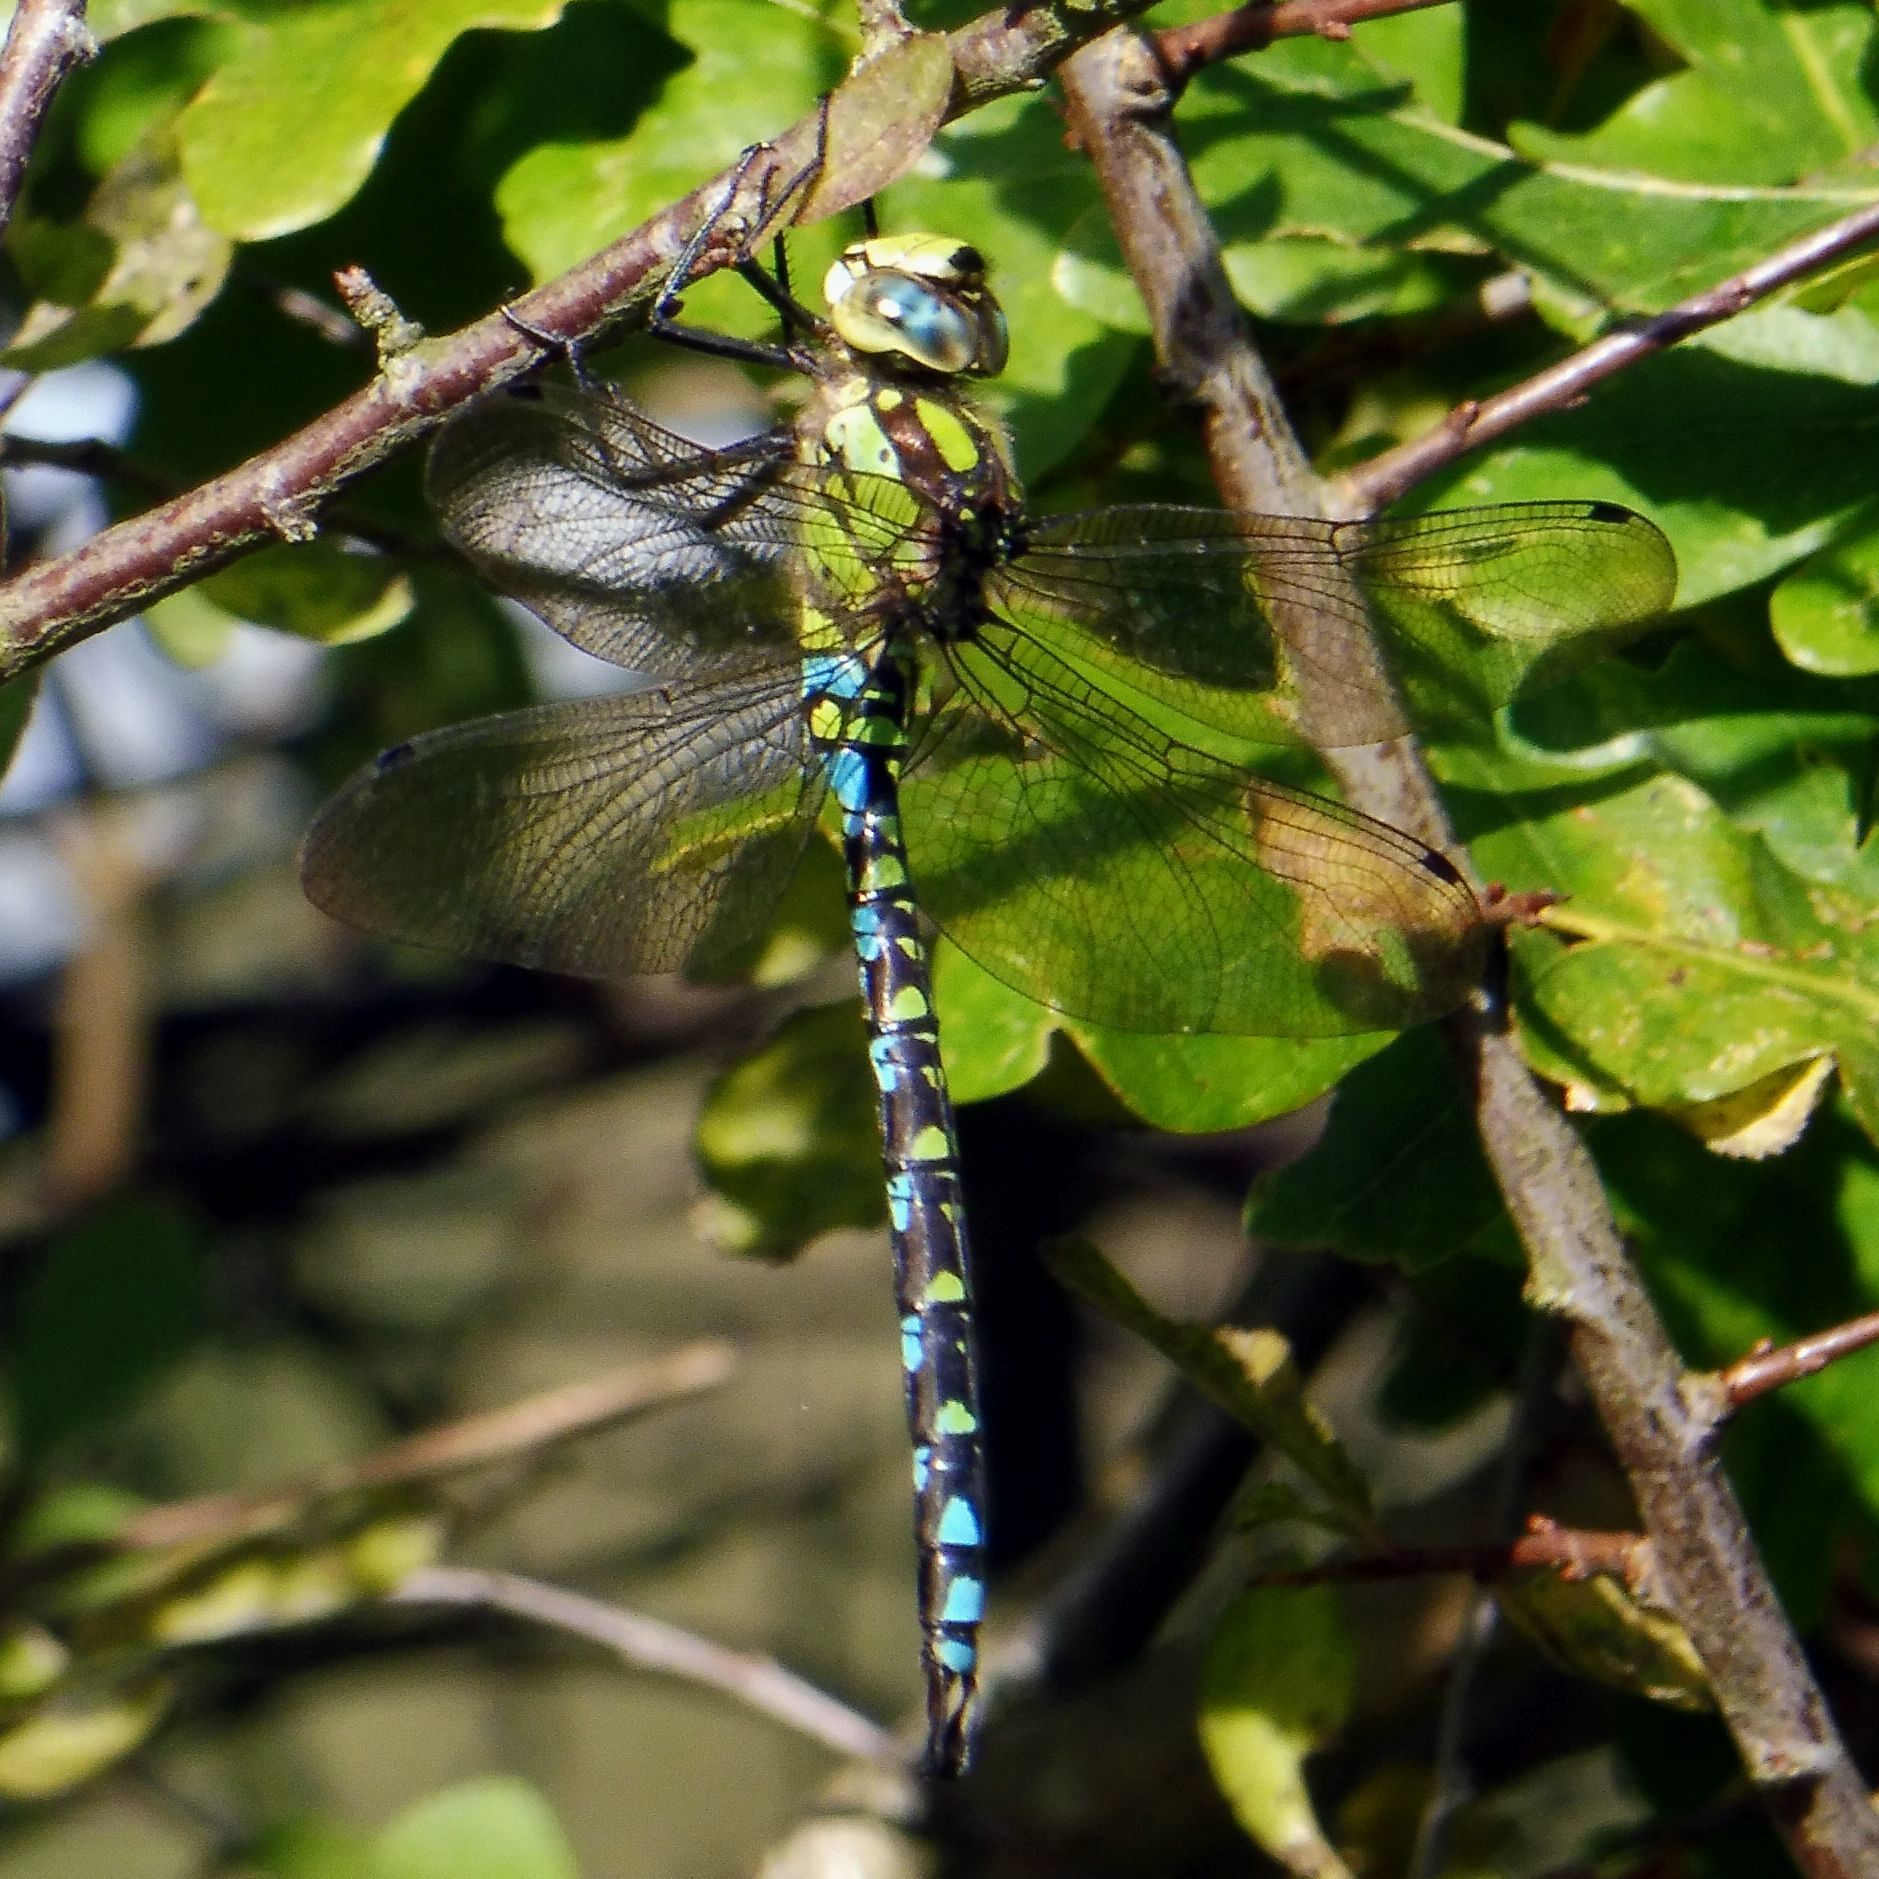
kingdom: Animalia
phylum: Arthropoda
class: Insecta
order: Odonata
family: Aeshnidae
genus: Aeshna
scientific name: Aeshna cyanea
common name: Southern hawker
